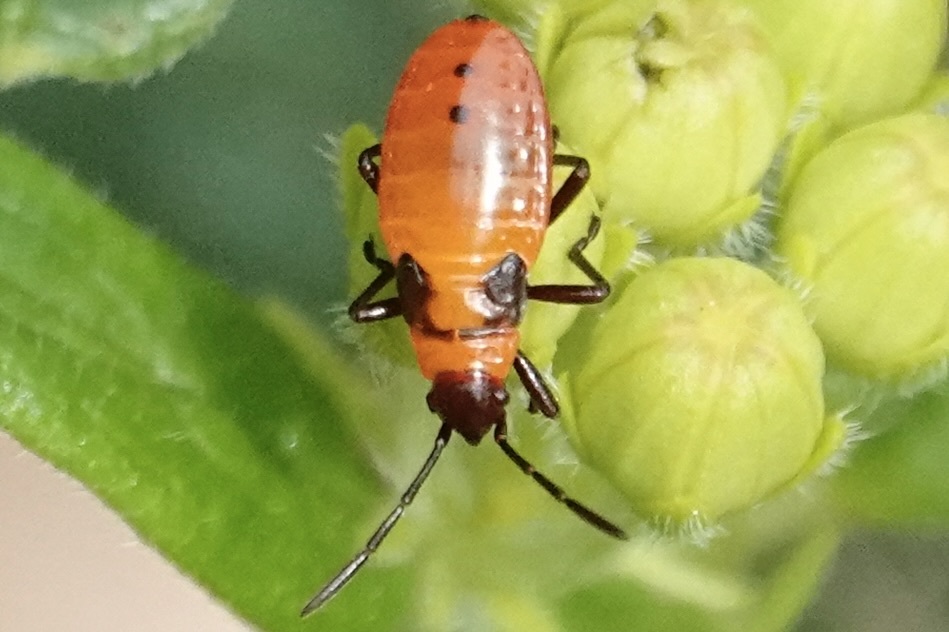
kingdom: Animalia
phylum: Arthropoda
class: Insecta
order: Hemiptera
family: Lygaeidae
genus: Oncopeltus
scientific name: Oncopeltus fasciatus
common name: Large milkweed bug
